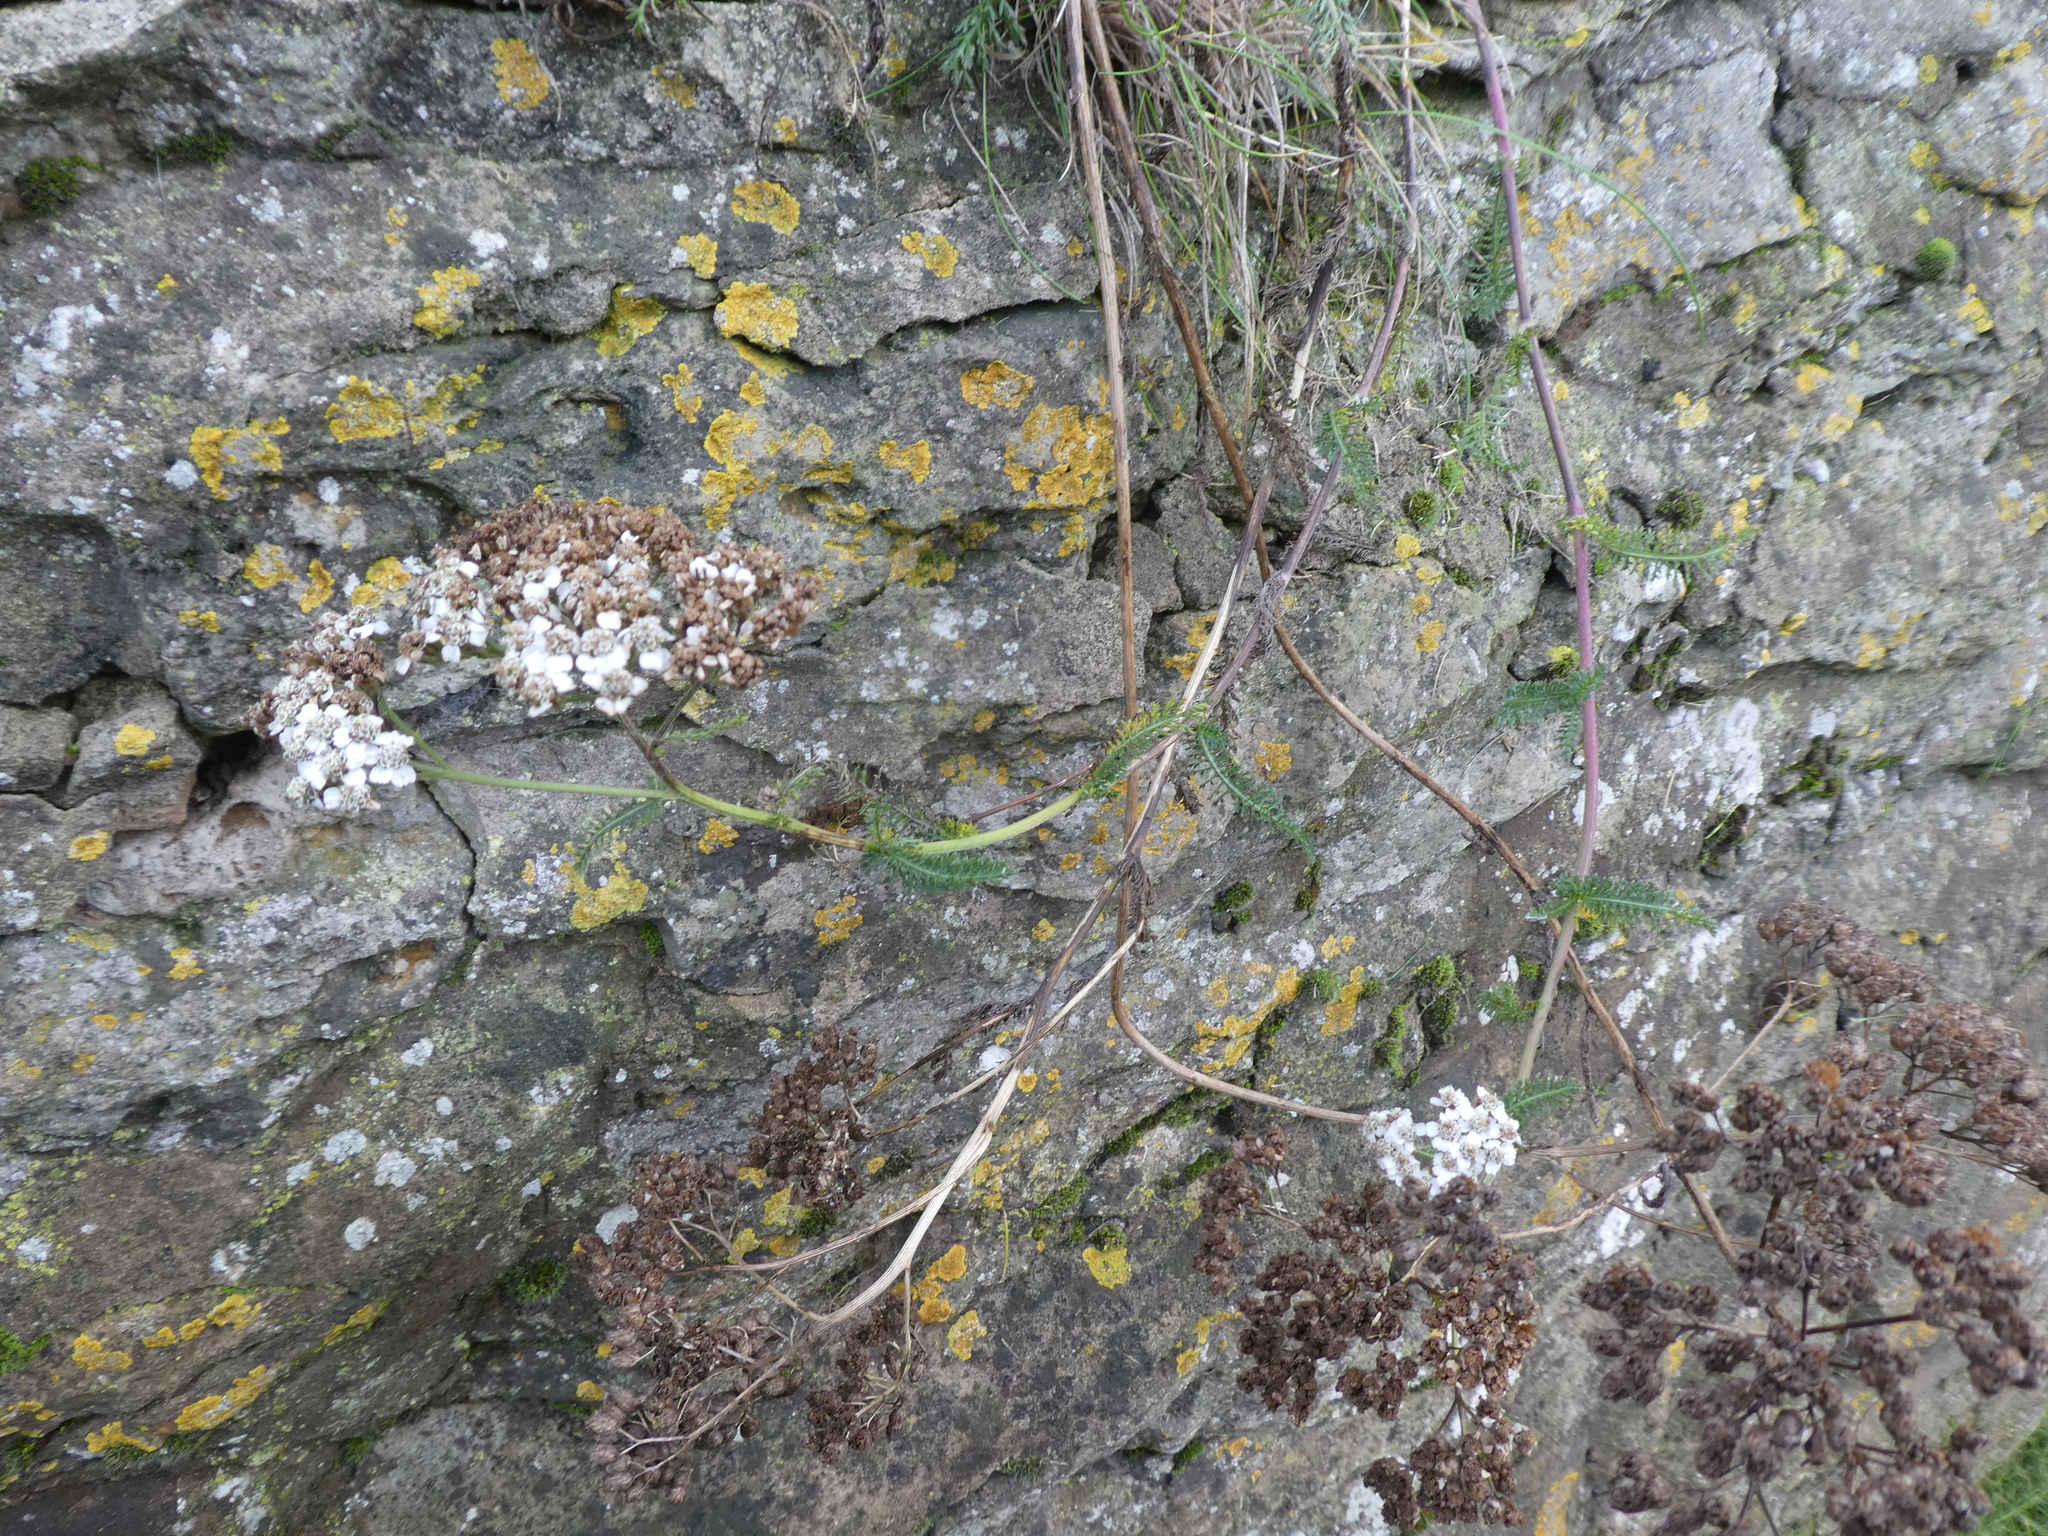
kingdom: Plantae
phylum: Tracheophyta
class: Magnoliopsida
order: Asterales
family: Asteraceae
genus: Achillea
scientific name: Achillea millefolium
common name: Yarrow
